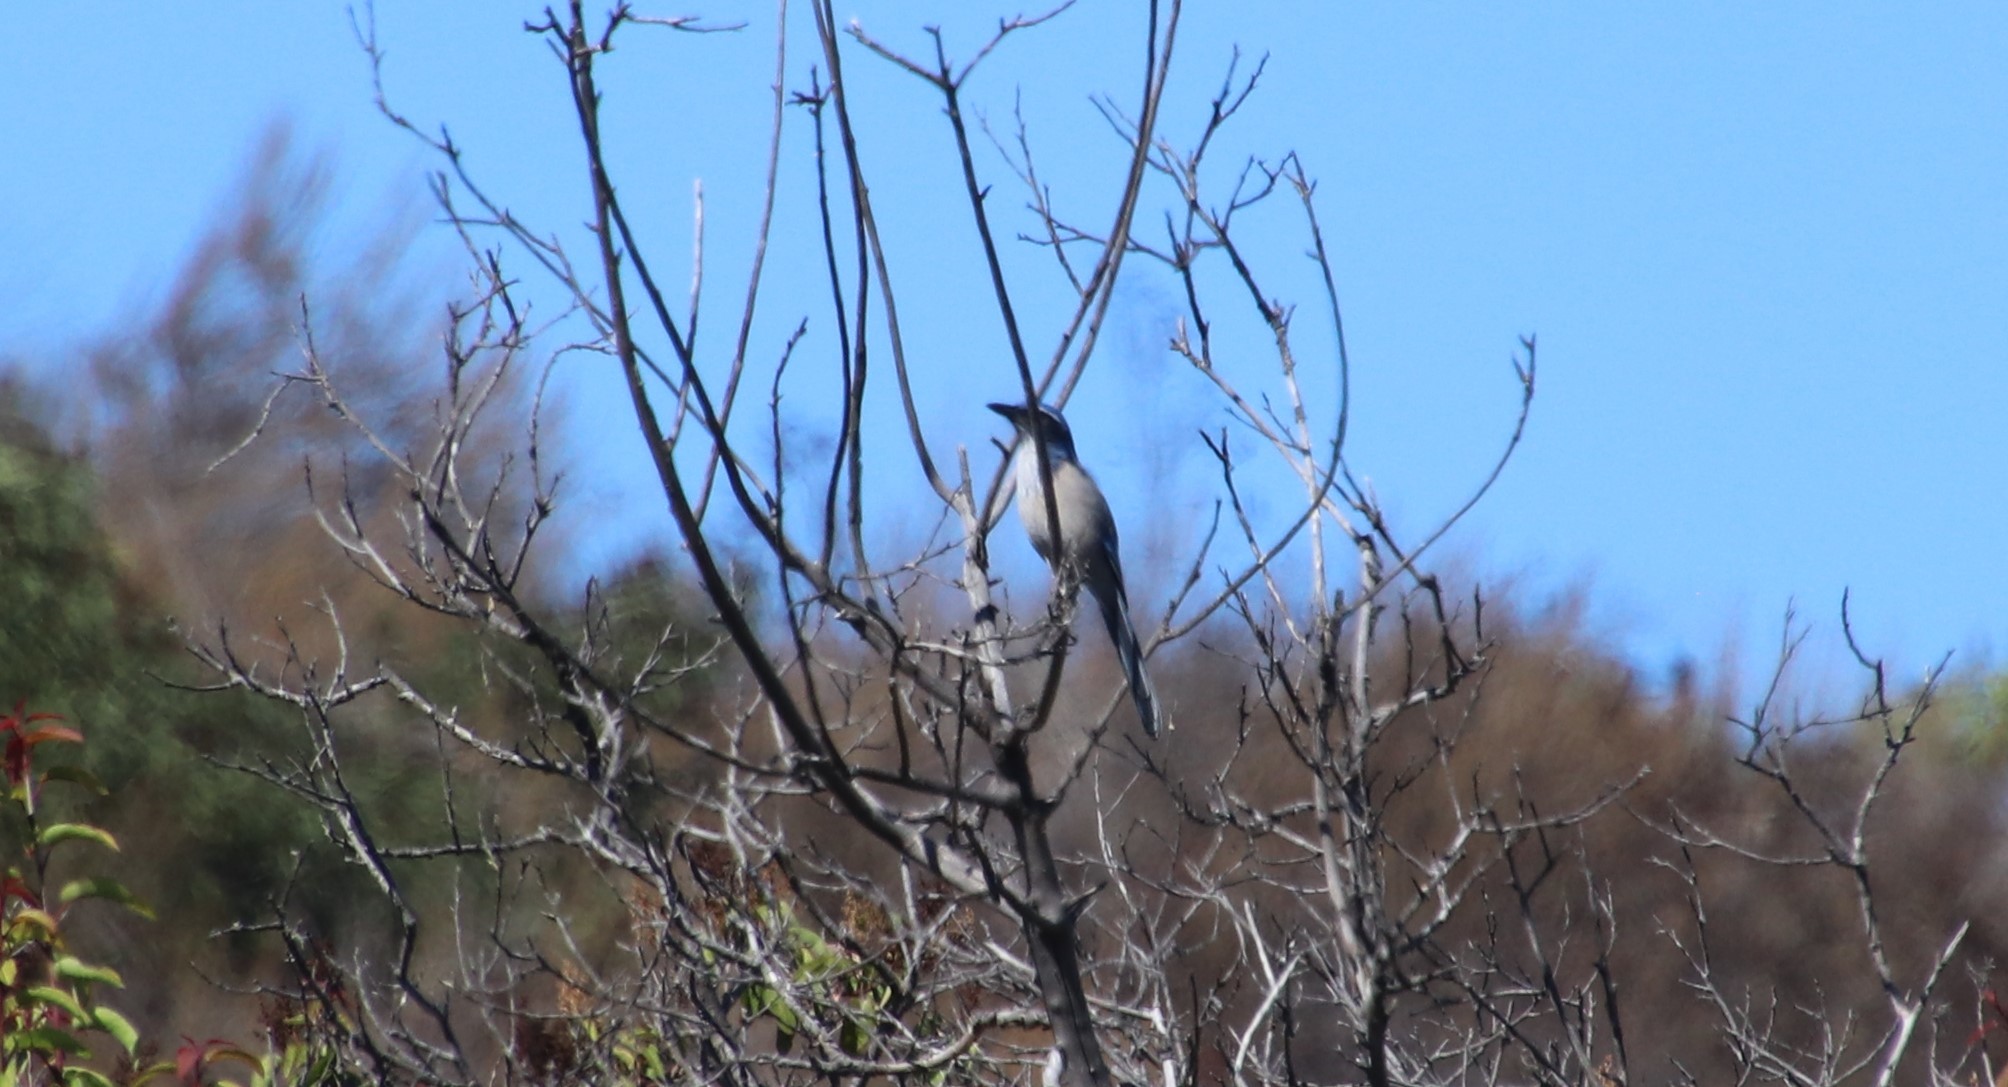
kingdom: Animalia
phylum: Chordata
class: Aves
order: Passeriformes
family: Corvidae
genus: Aphelocoma
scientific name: Aphelocoma californica
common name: California scrub-jay
